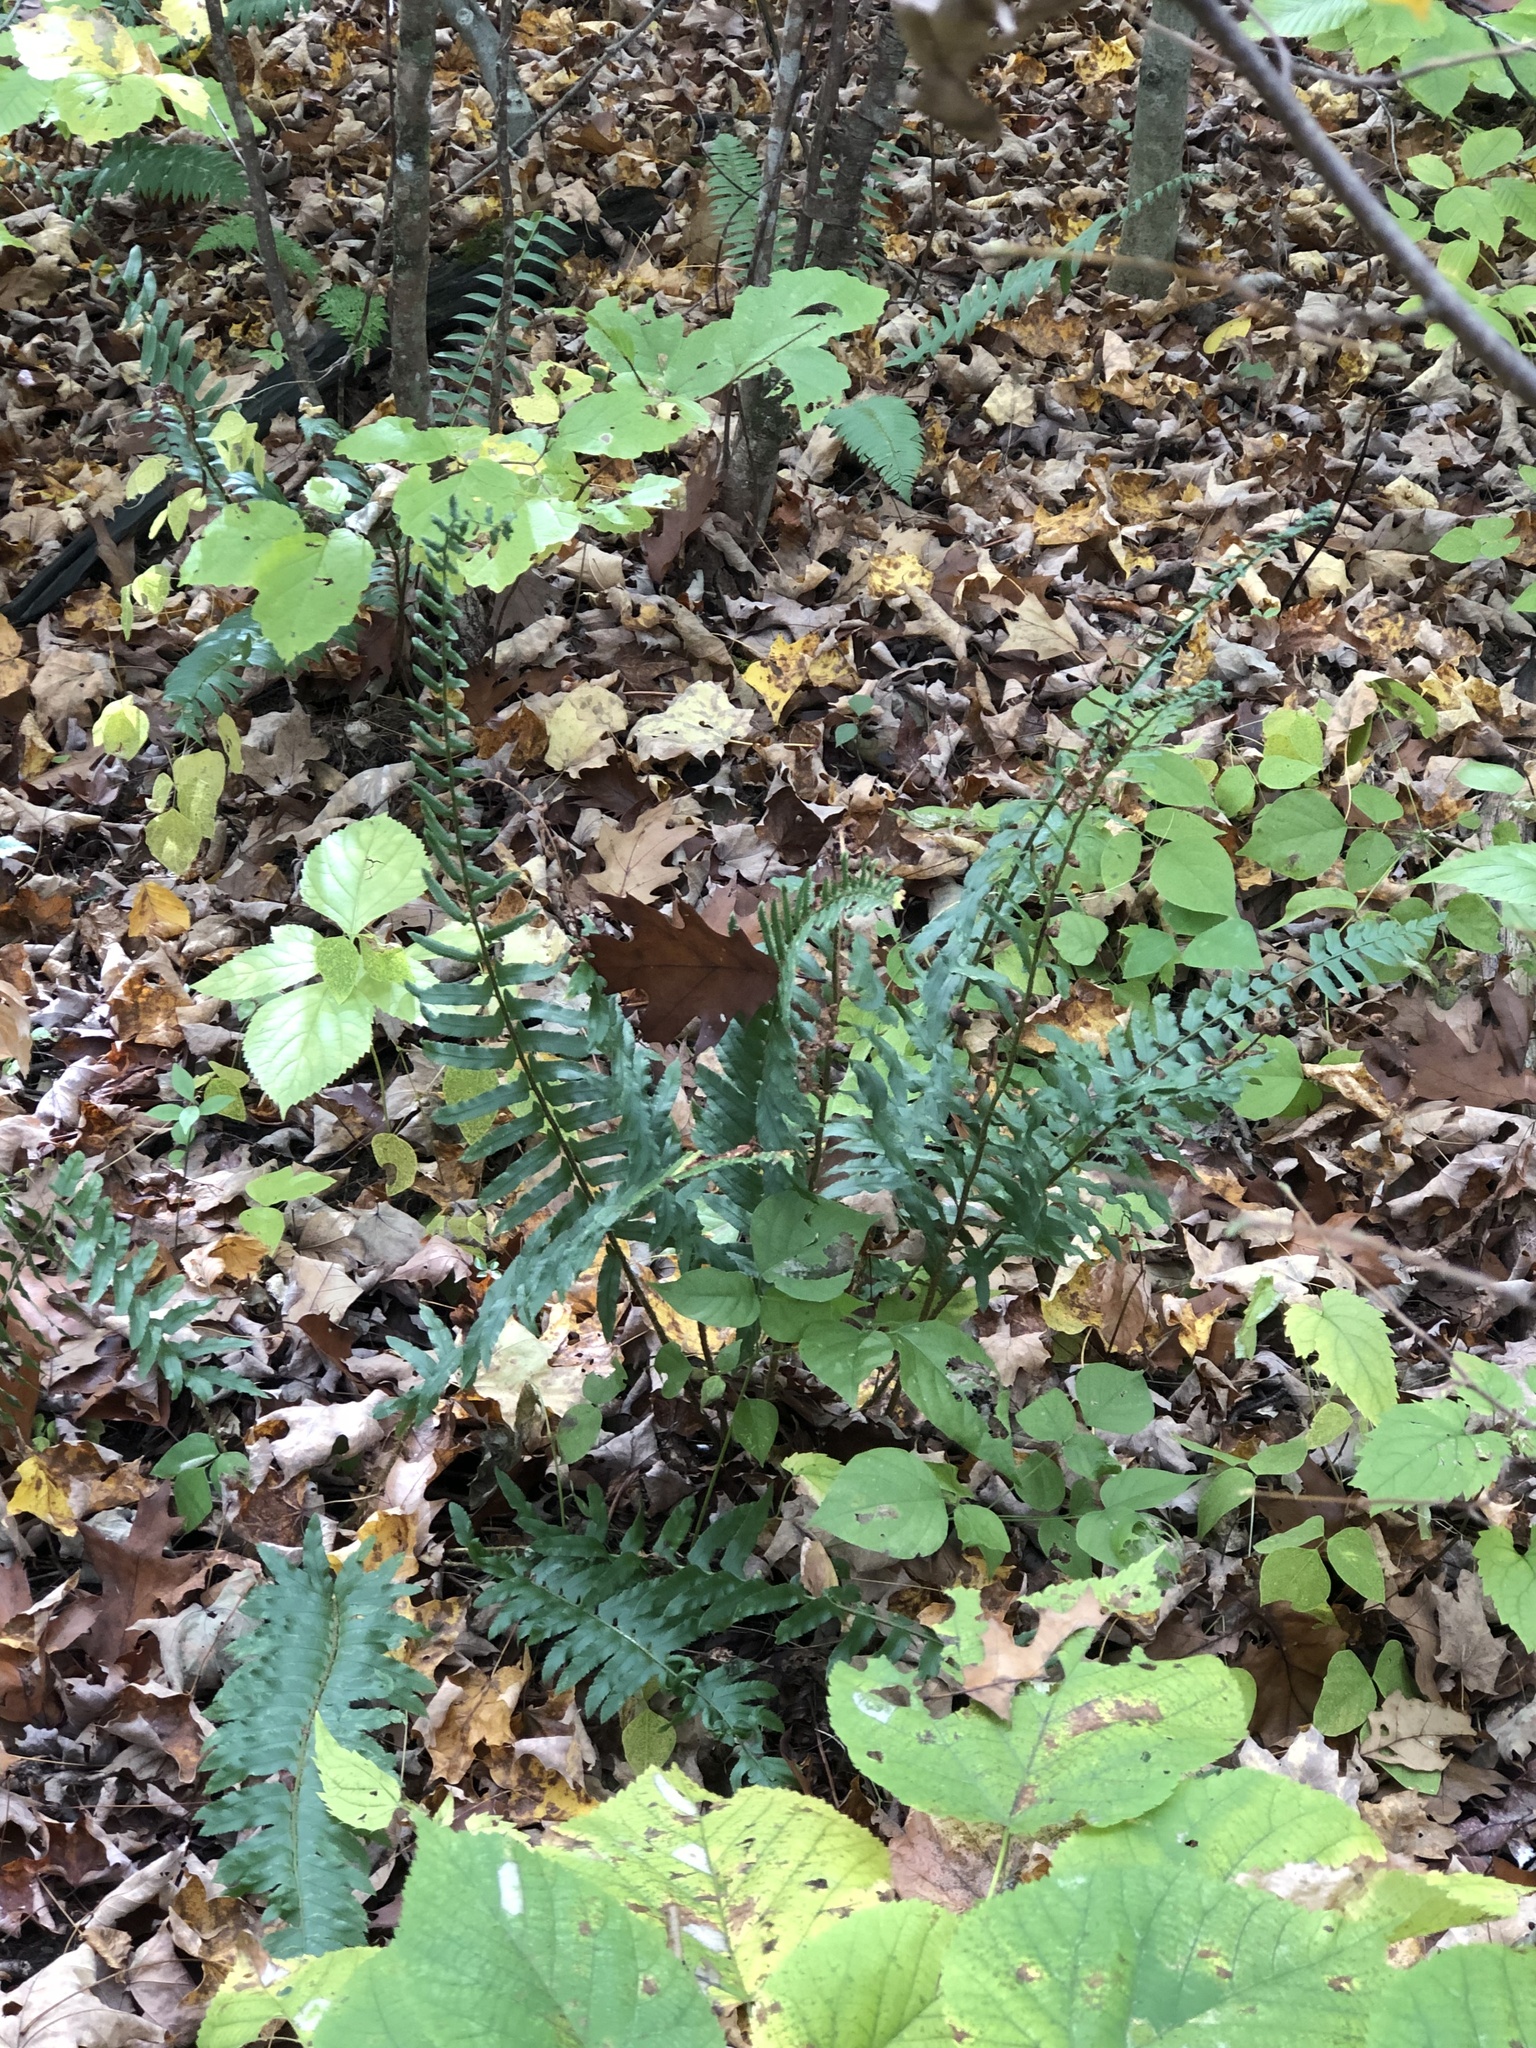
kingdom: Plantae
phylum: Tracheophyta
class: Polypodiopsida
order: Polypodiales
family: Dryopteridaceae
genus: Polystichum
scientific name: Polystichum acrostichoides
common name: Christmas fern
